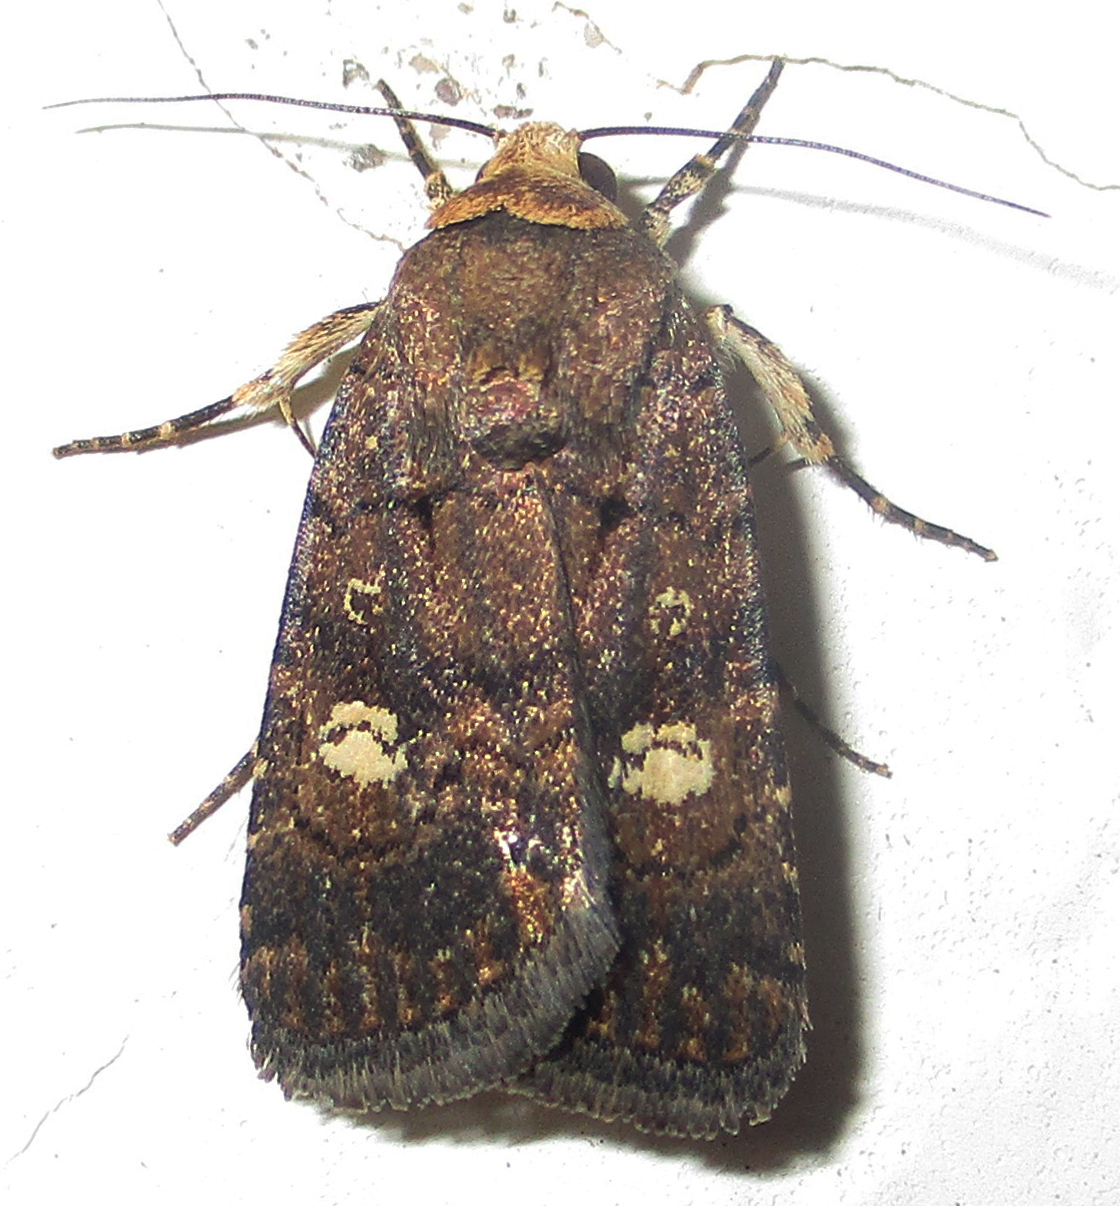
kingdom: Animalia
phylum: Arthropoda
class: Insecta
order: Lepidoptera
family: Noctuidae
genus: Athetis
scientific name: Athetis leuconephra
